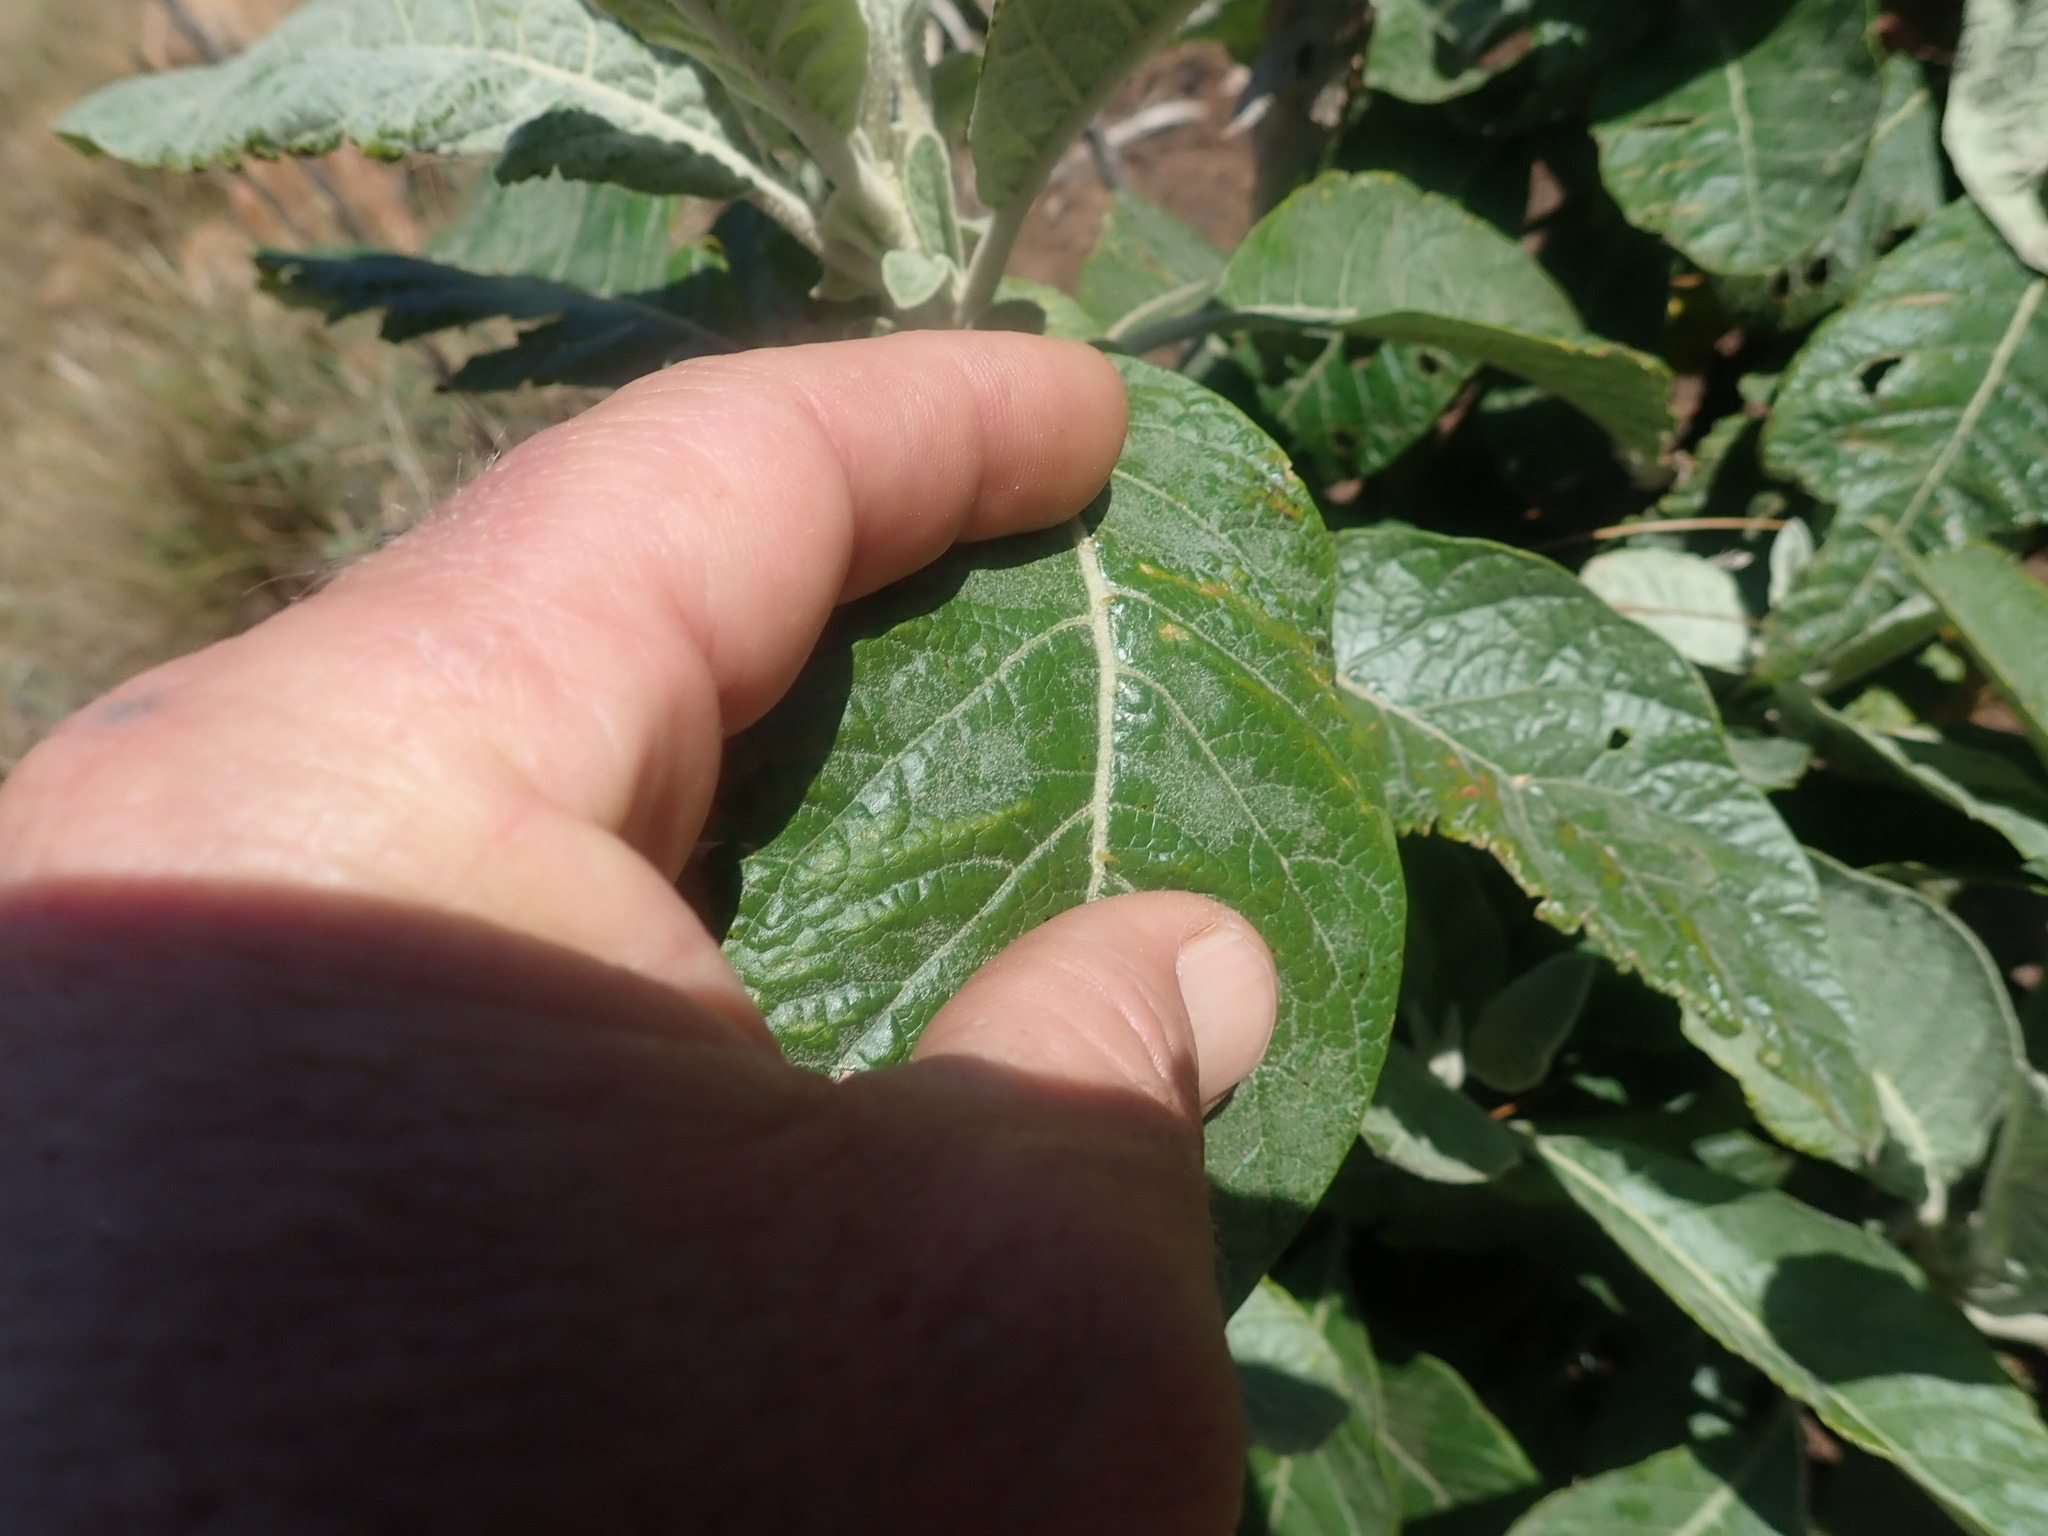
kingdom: Plantae
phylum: Tracheophyta
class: Magnoliopsida
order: Solanales
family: Solanaceae
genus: Solanum
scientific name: Solanum giganteum
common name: Healing-leaf-tree
